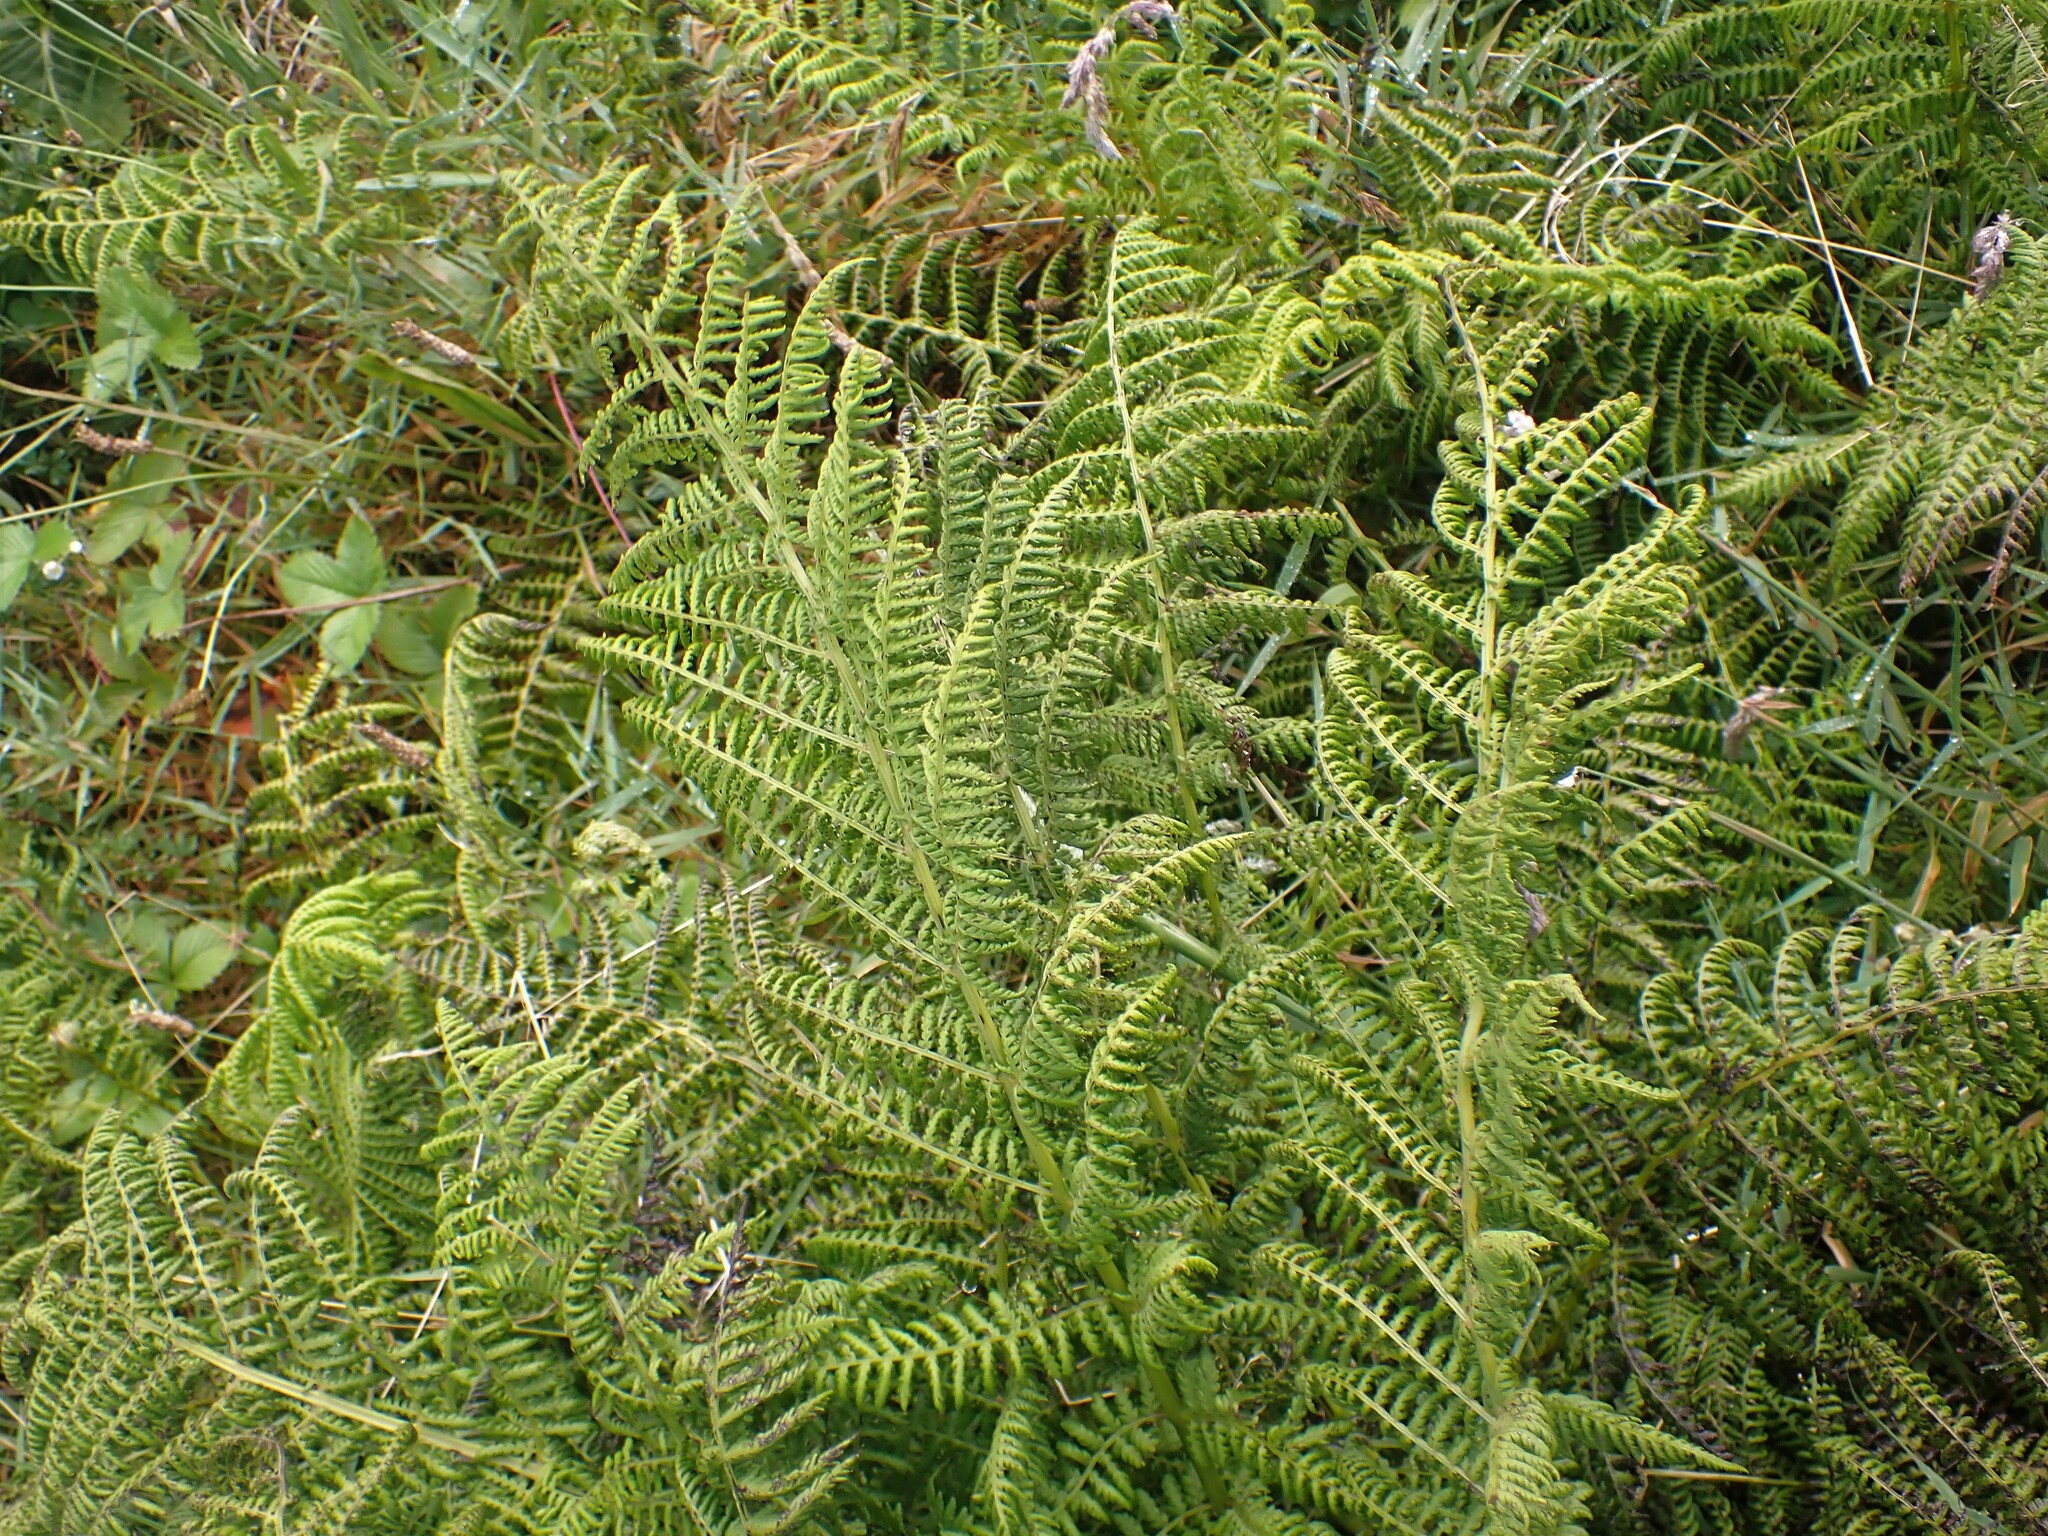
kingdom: Plantae
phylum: Tracheophyta
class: Polypodiopsida
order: Polypodiales
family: Athyriaceae
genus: Athyrium
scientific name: Athyrium filix-femina
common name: Lady fern
